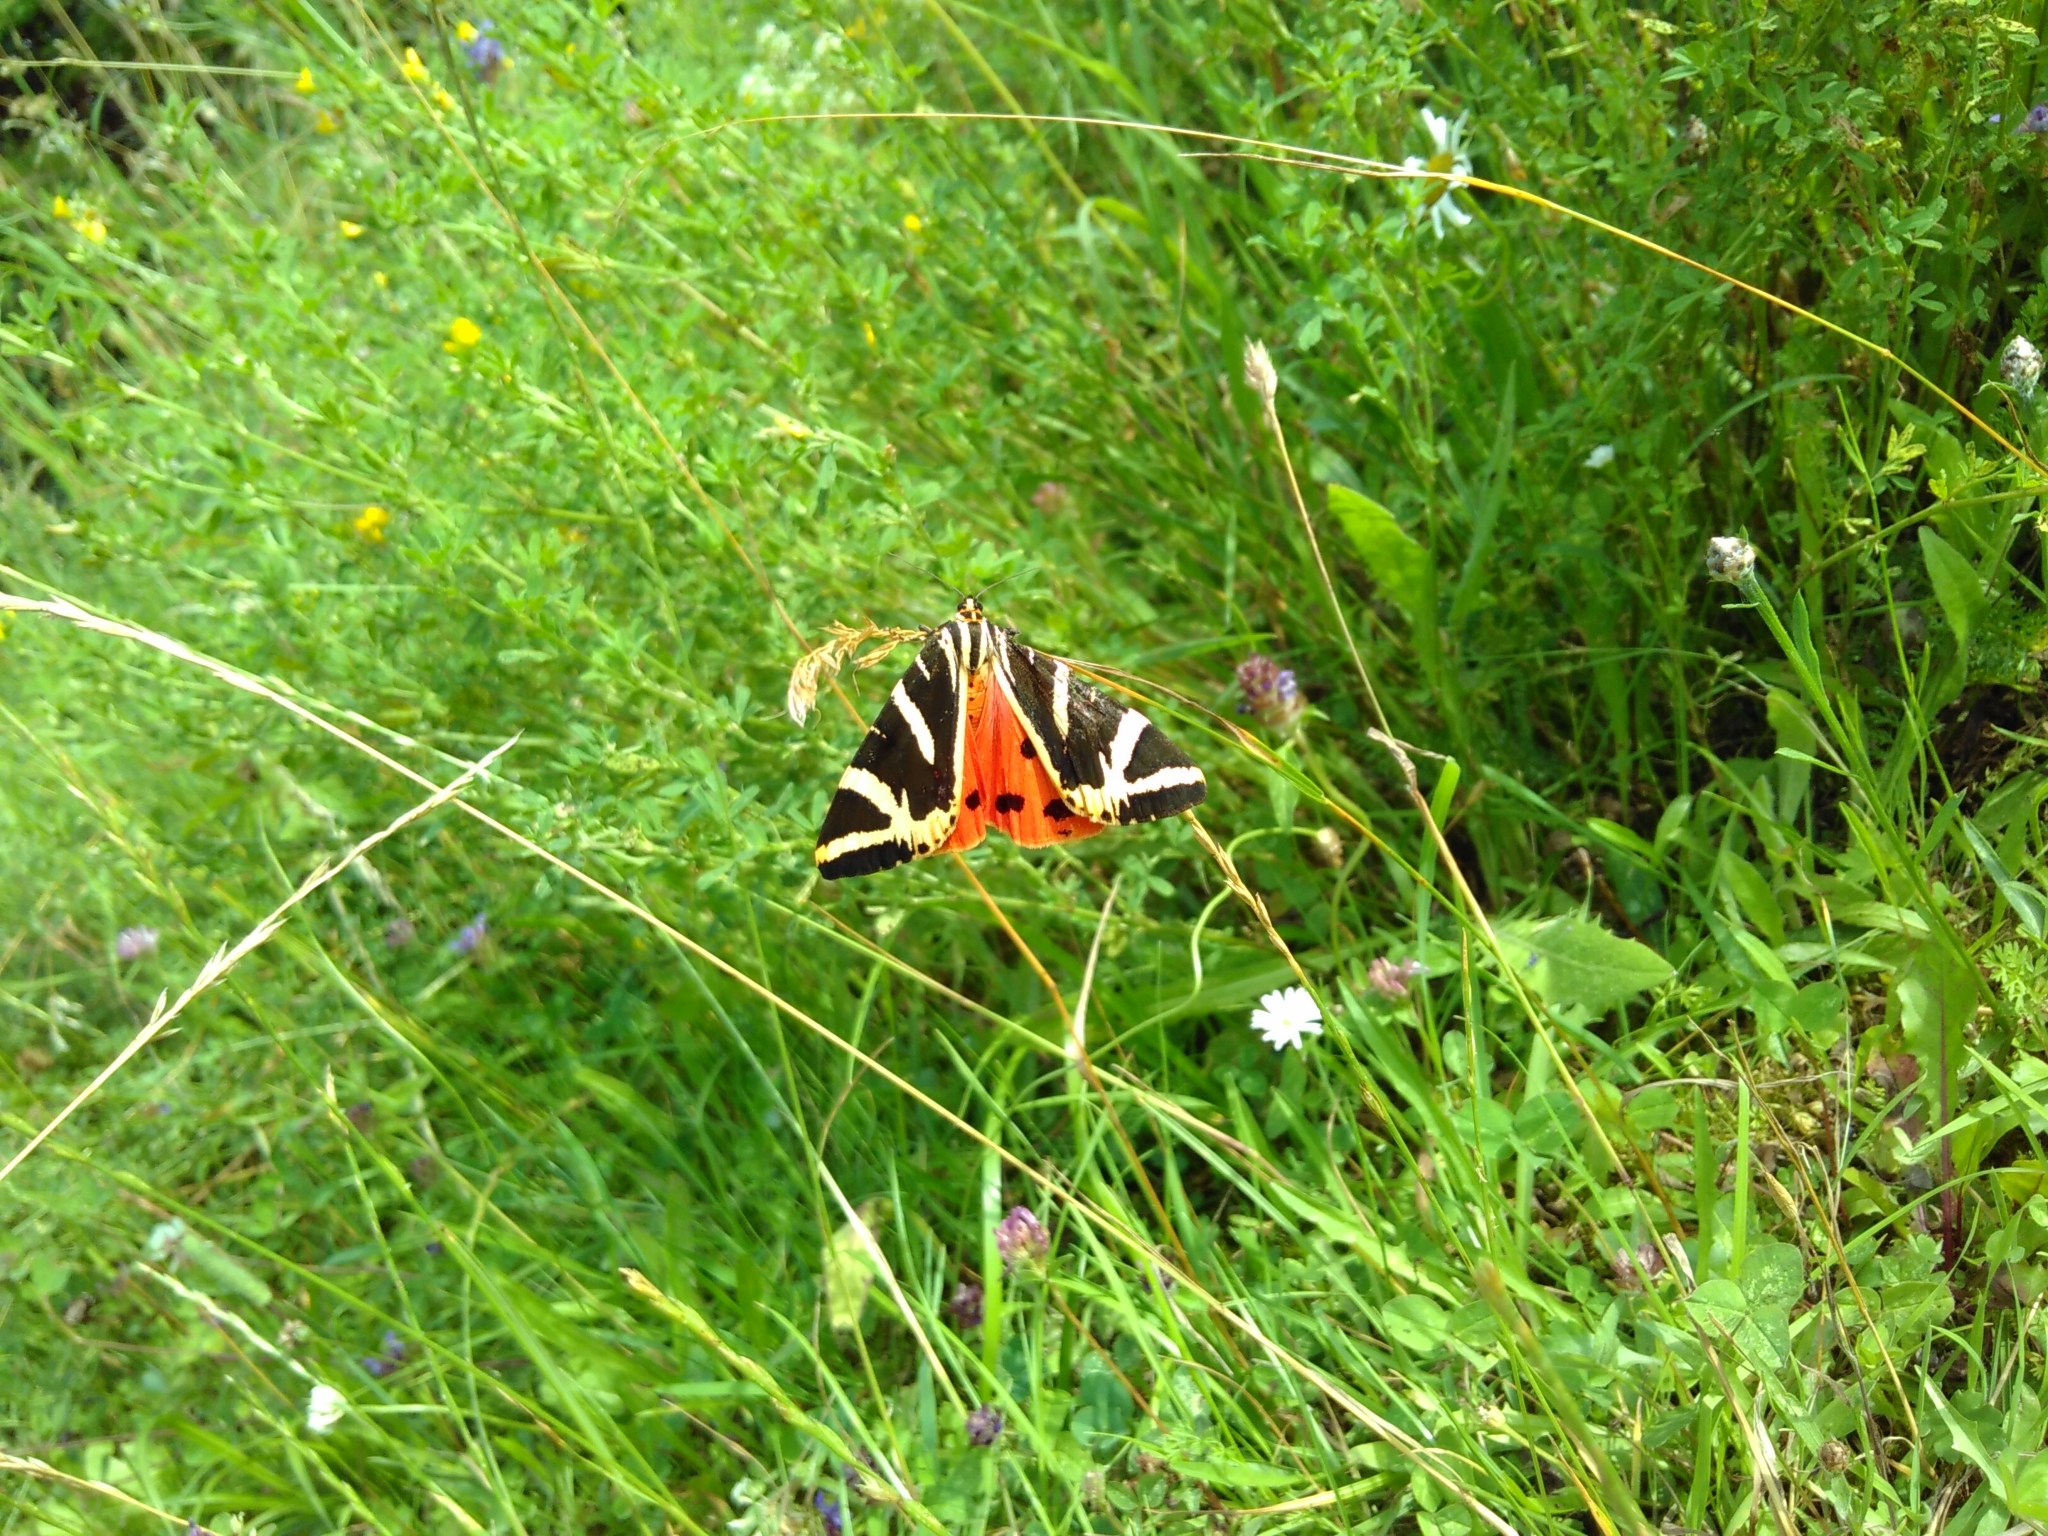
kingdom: Animalia
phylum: Arthropoda
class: Insecta
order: Lepidoptera
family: Erebidae
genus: Euplagia
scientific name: Euplagia quadripunctaria
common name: Jersey tiger
